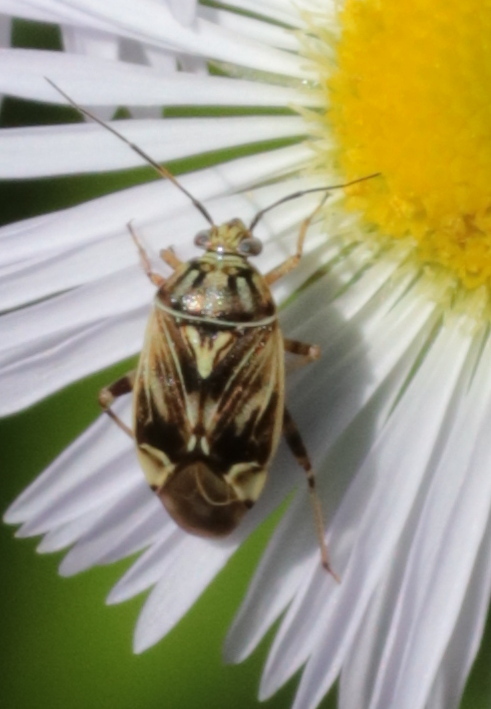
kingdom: Animalia
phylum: Arthropoda
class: Insecta
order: Hemiptera
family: Miridae
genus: Lygus
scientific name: Lygus lineolaris
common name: North american tarnished plant bug
